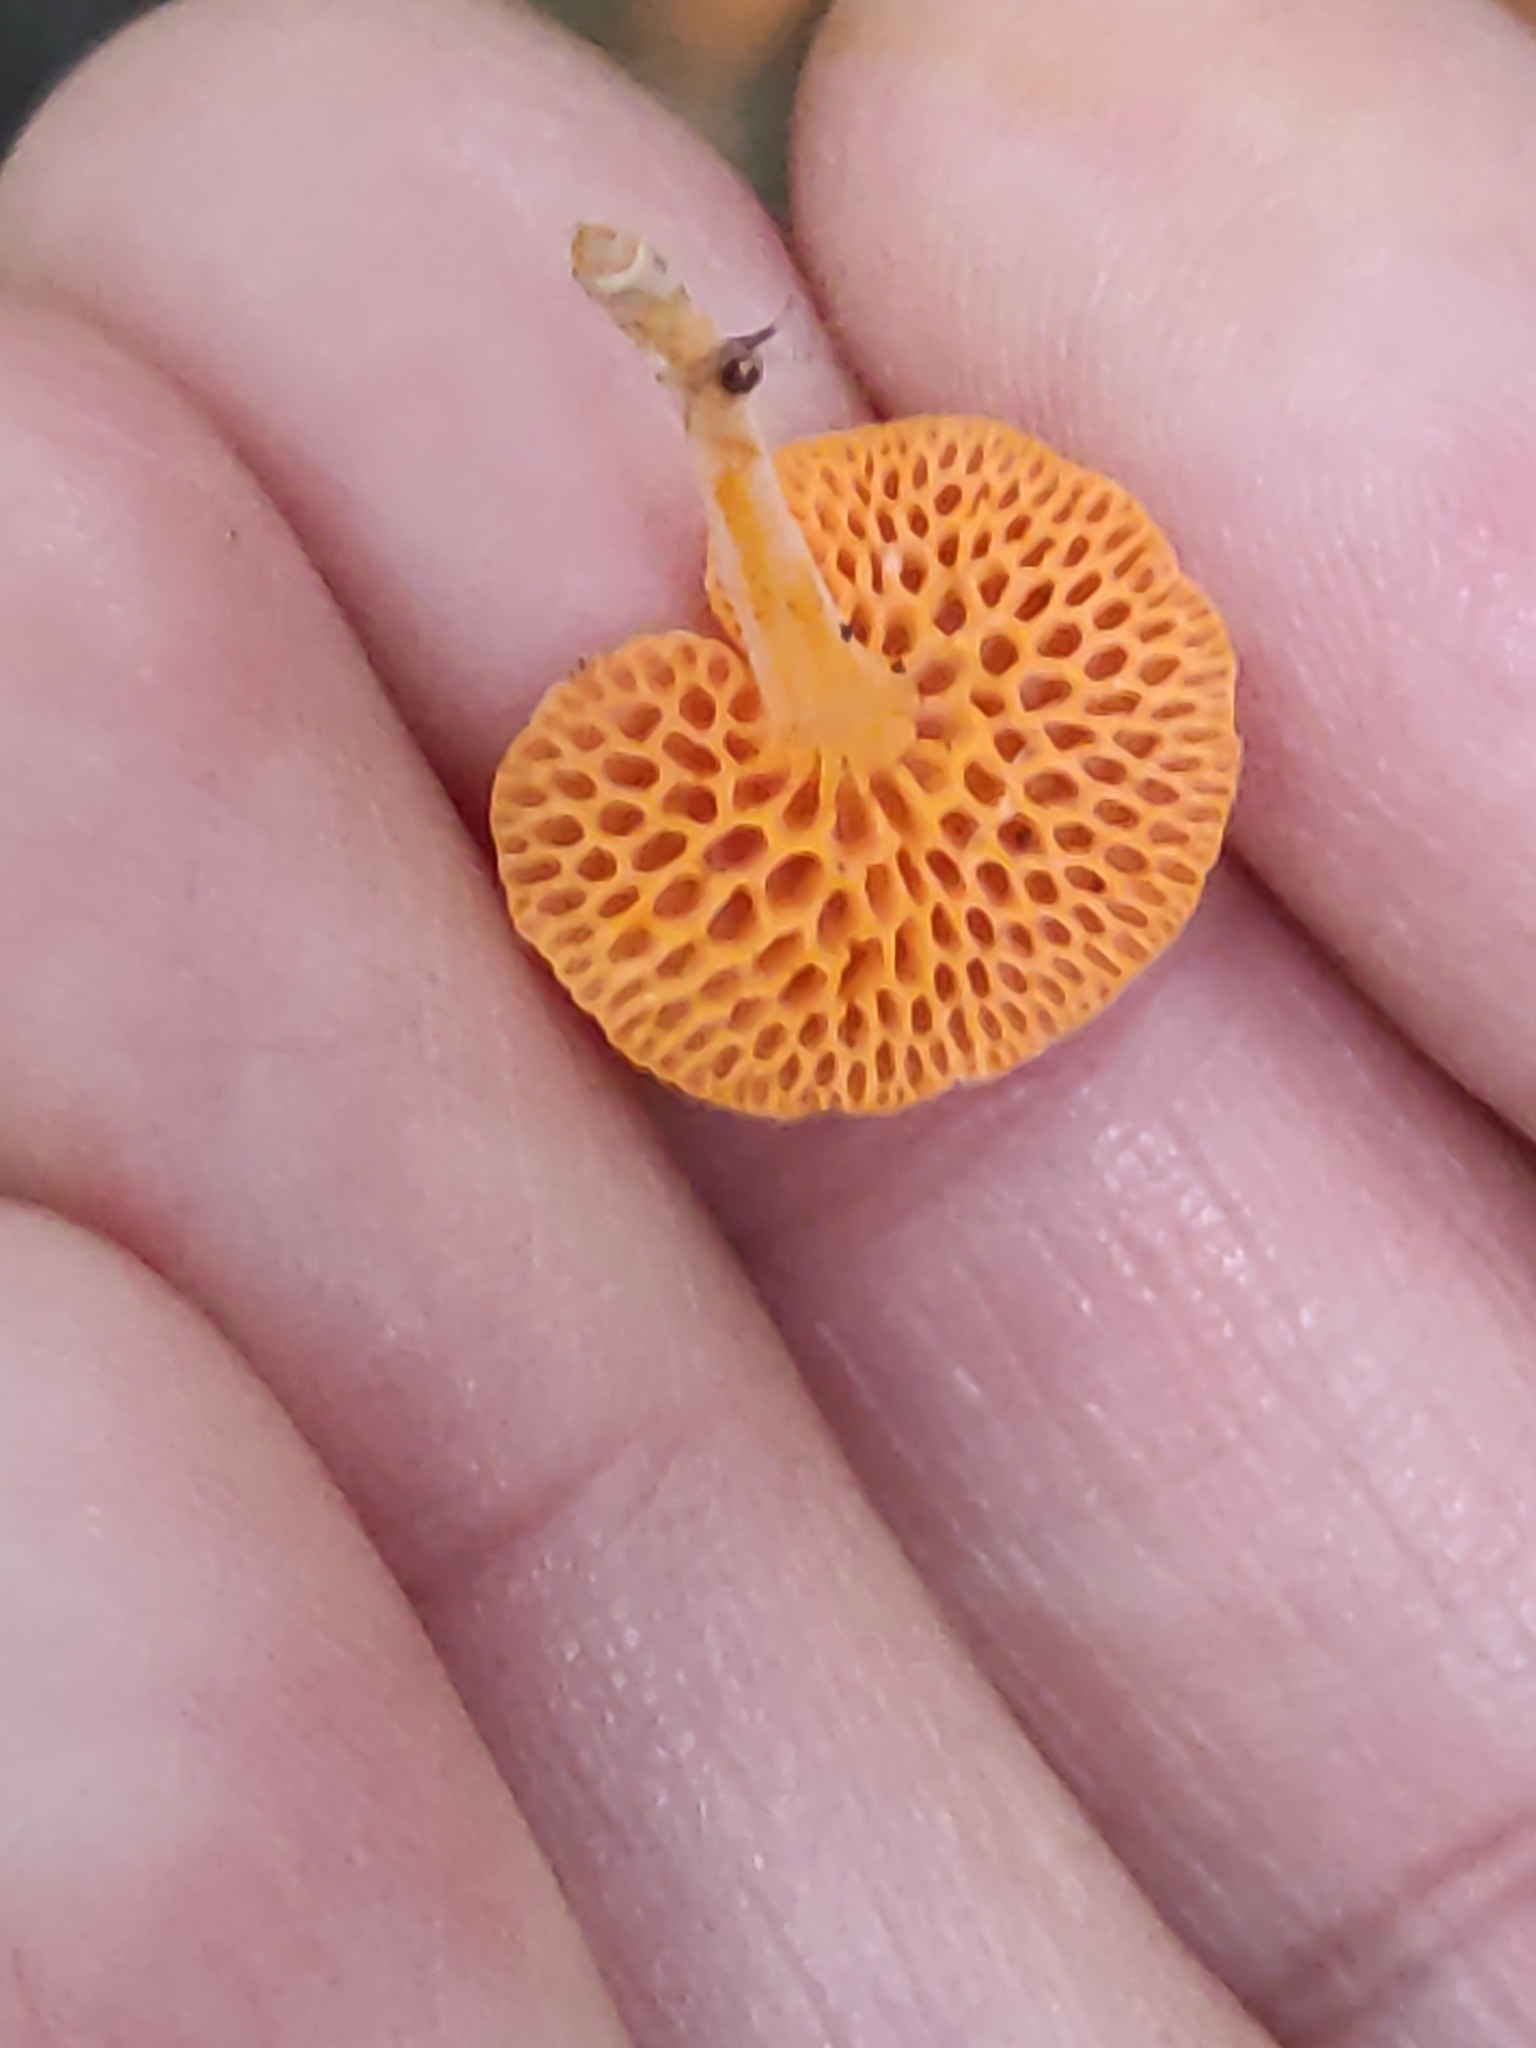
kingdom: Fungi
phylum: Basidiomycota
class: Agaricomycetes
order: Agaricales
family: Mycenaceae
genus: Favolaschia
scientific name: Favolaschia claudopus
